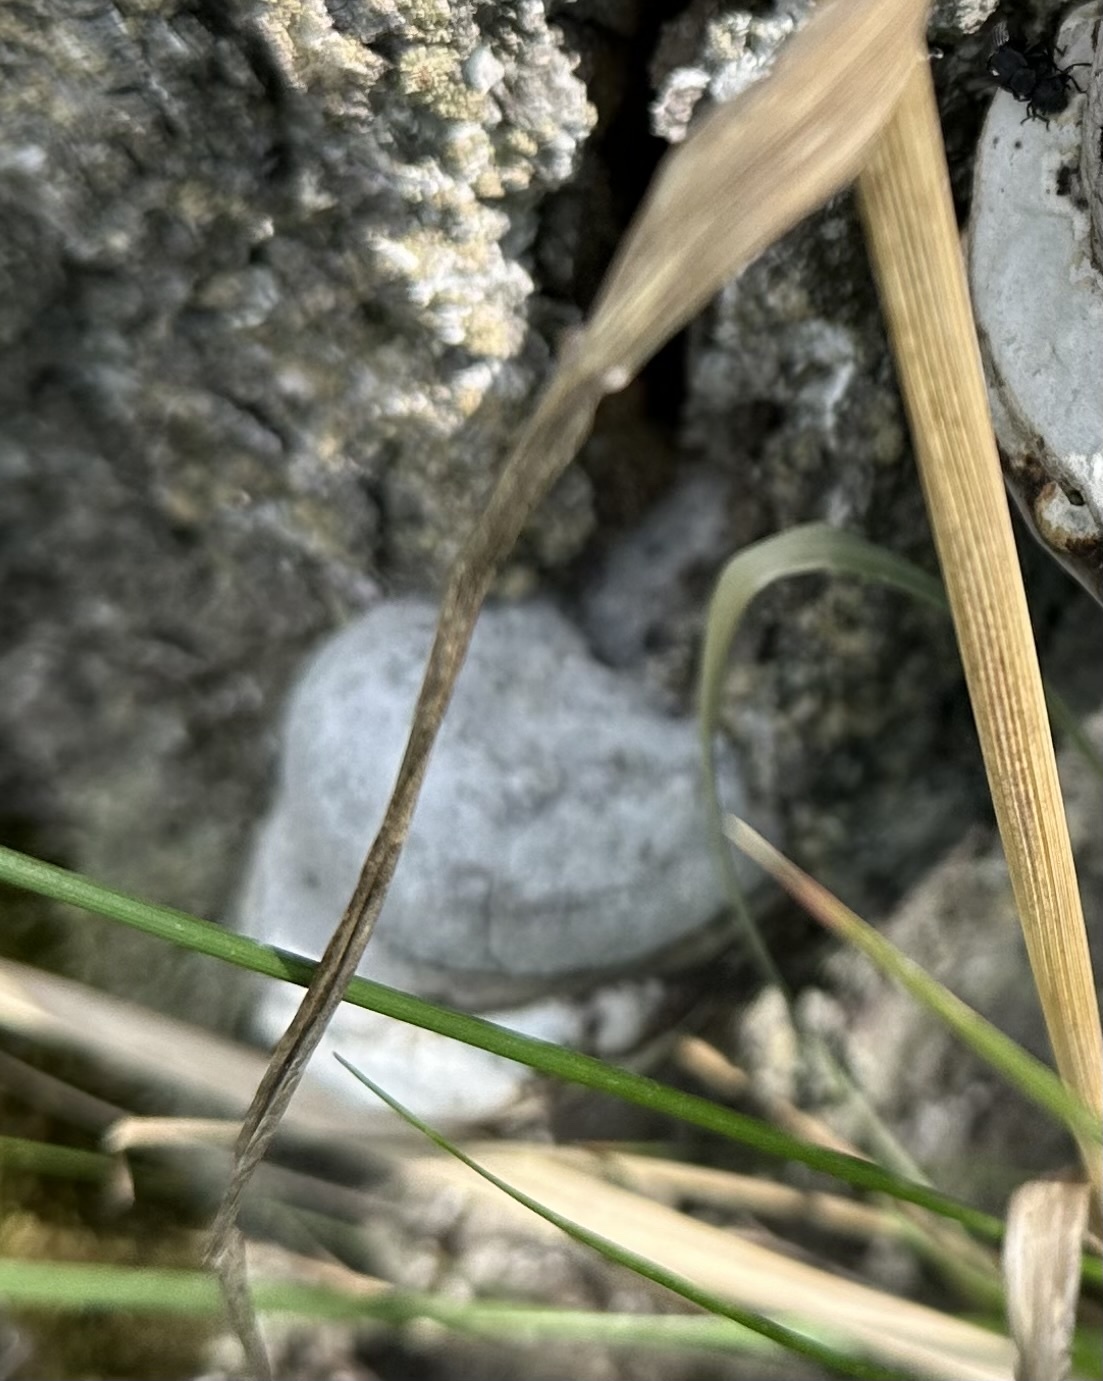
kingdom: Fungi
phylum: Basidiomycota
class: Agaricomycetes
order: Polyporales
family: Polyporaceae
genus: Fomes
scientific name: Fomes fomentarius
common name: Hoof fungus
